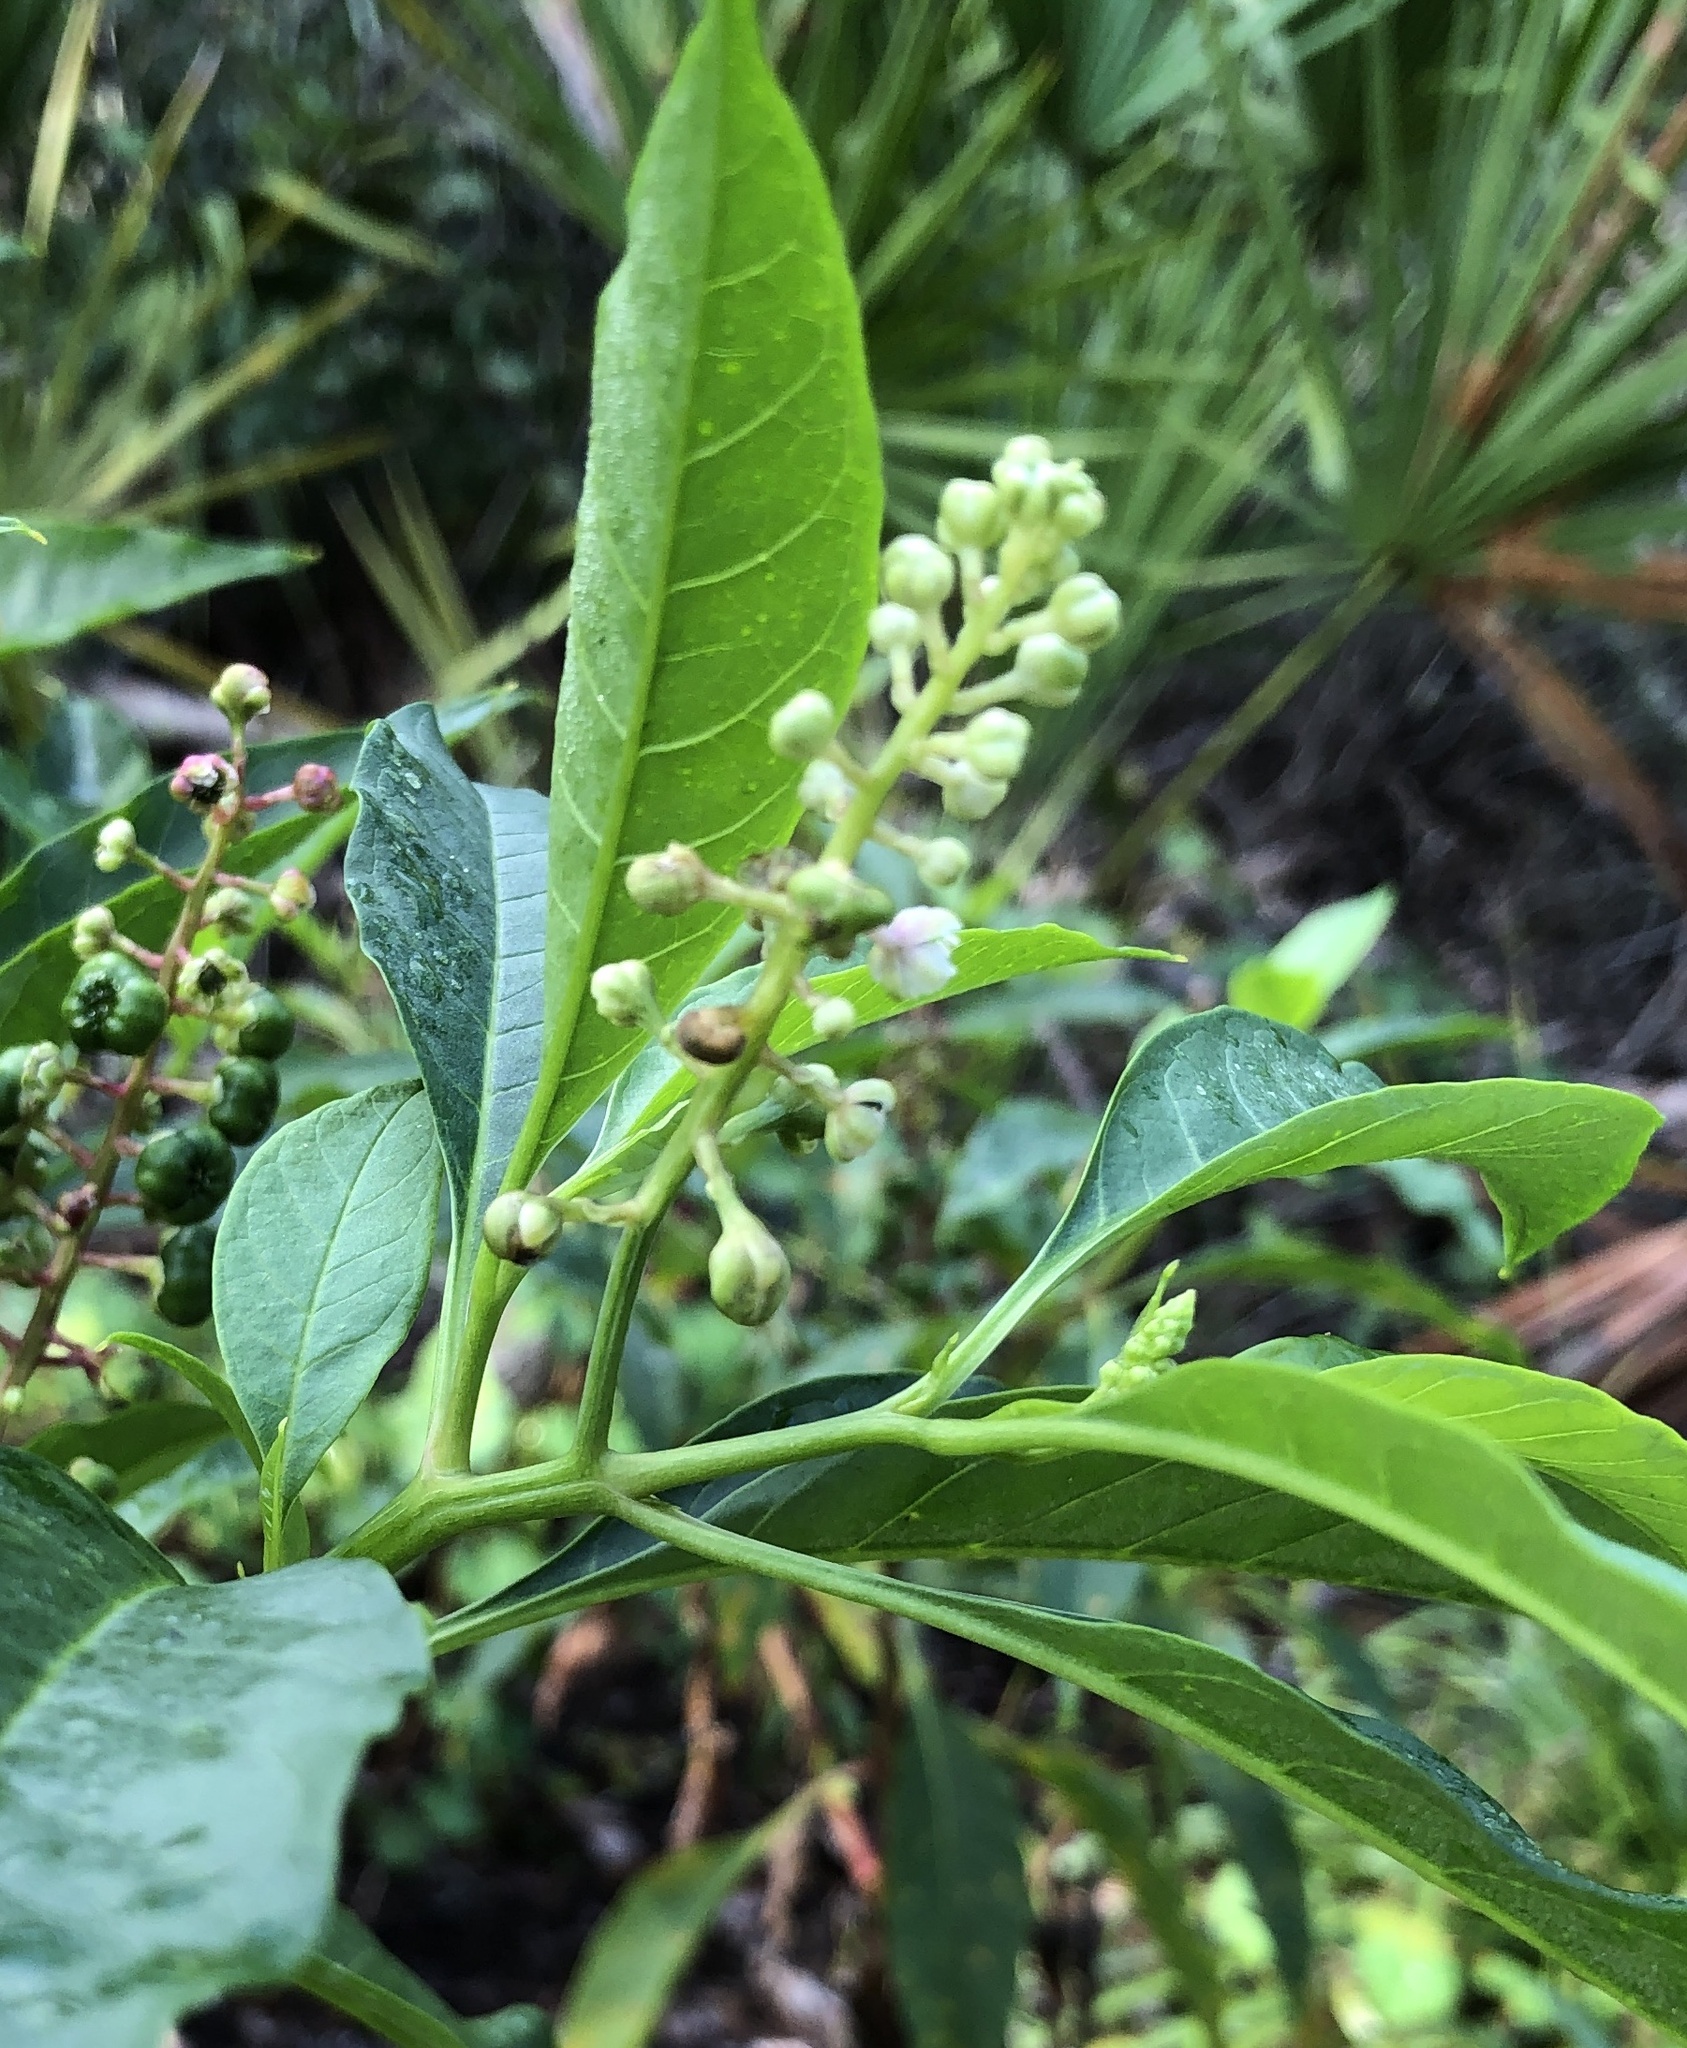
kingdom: Plantae
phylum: Tracheophyta
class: Magnoliopsida
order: Caryophyllales
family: Phytolaccaceae
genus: Phytolacca
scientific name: Phytolacca americana
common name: American pokeweed
